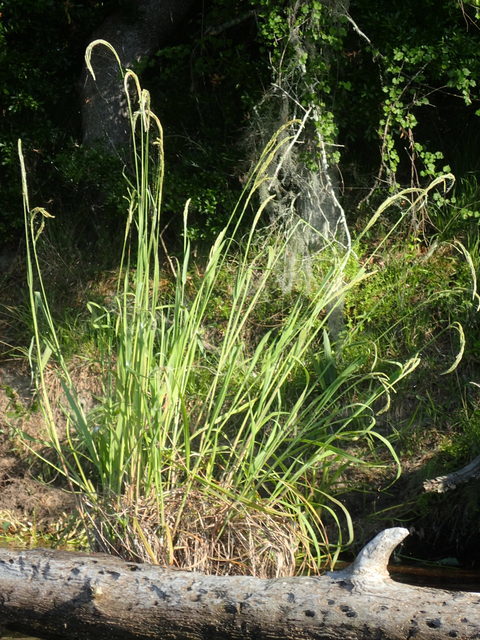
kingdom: Plantae
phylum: Tracheophyta
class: Liliopsida
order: Poales
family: Poaceae
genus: Paspalum
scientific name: Paspalum urvillei
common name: Vasey's grass
